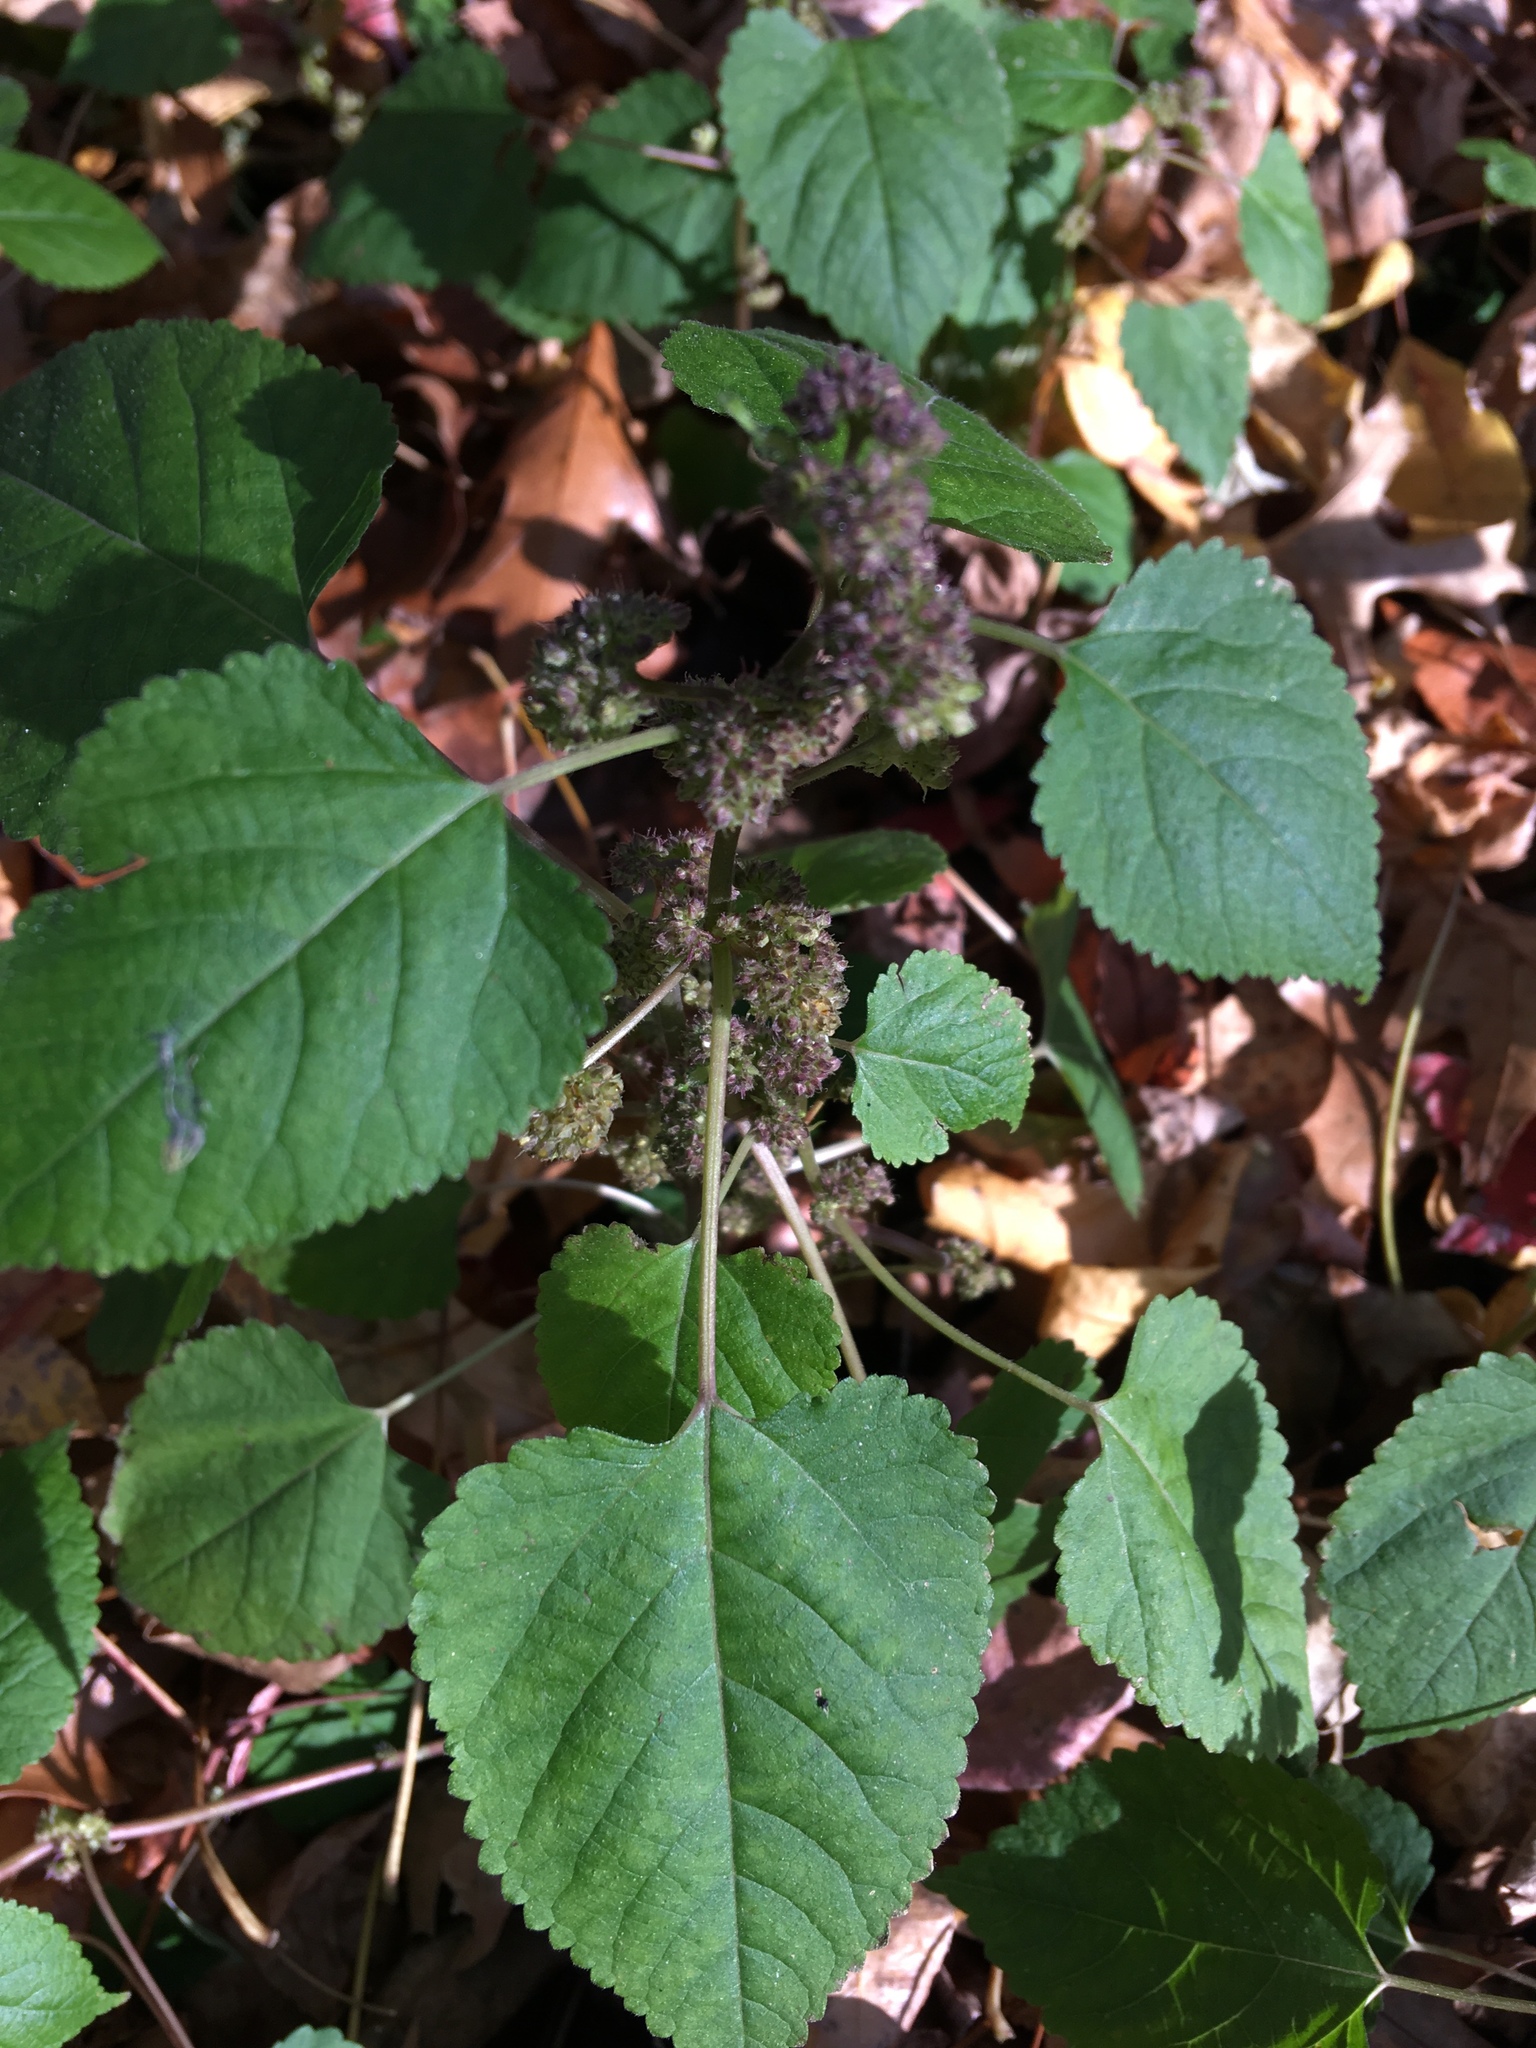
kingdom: Plantae
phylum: Tracheophyta
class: Magnoliopsida
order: Rosales
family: Moraceae
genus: Fatoua
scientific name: Fatoua villosa
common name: Hairy crabweed
